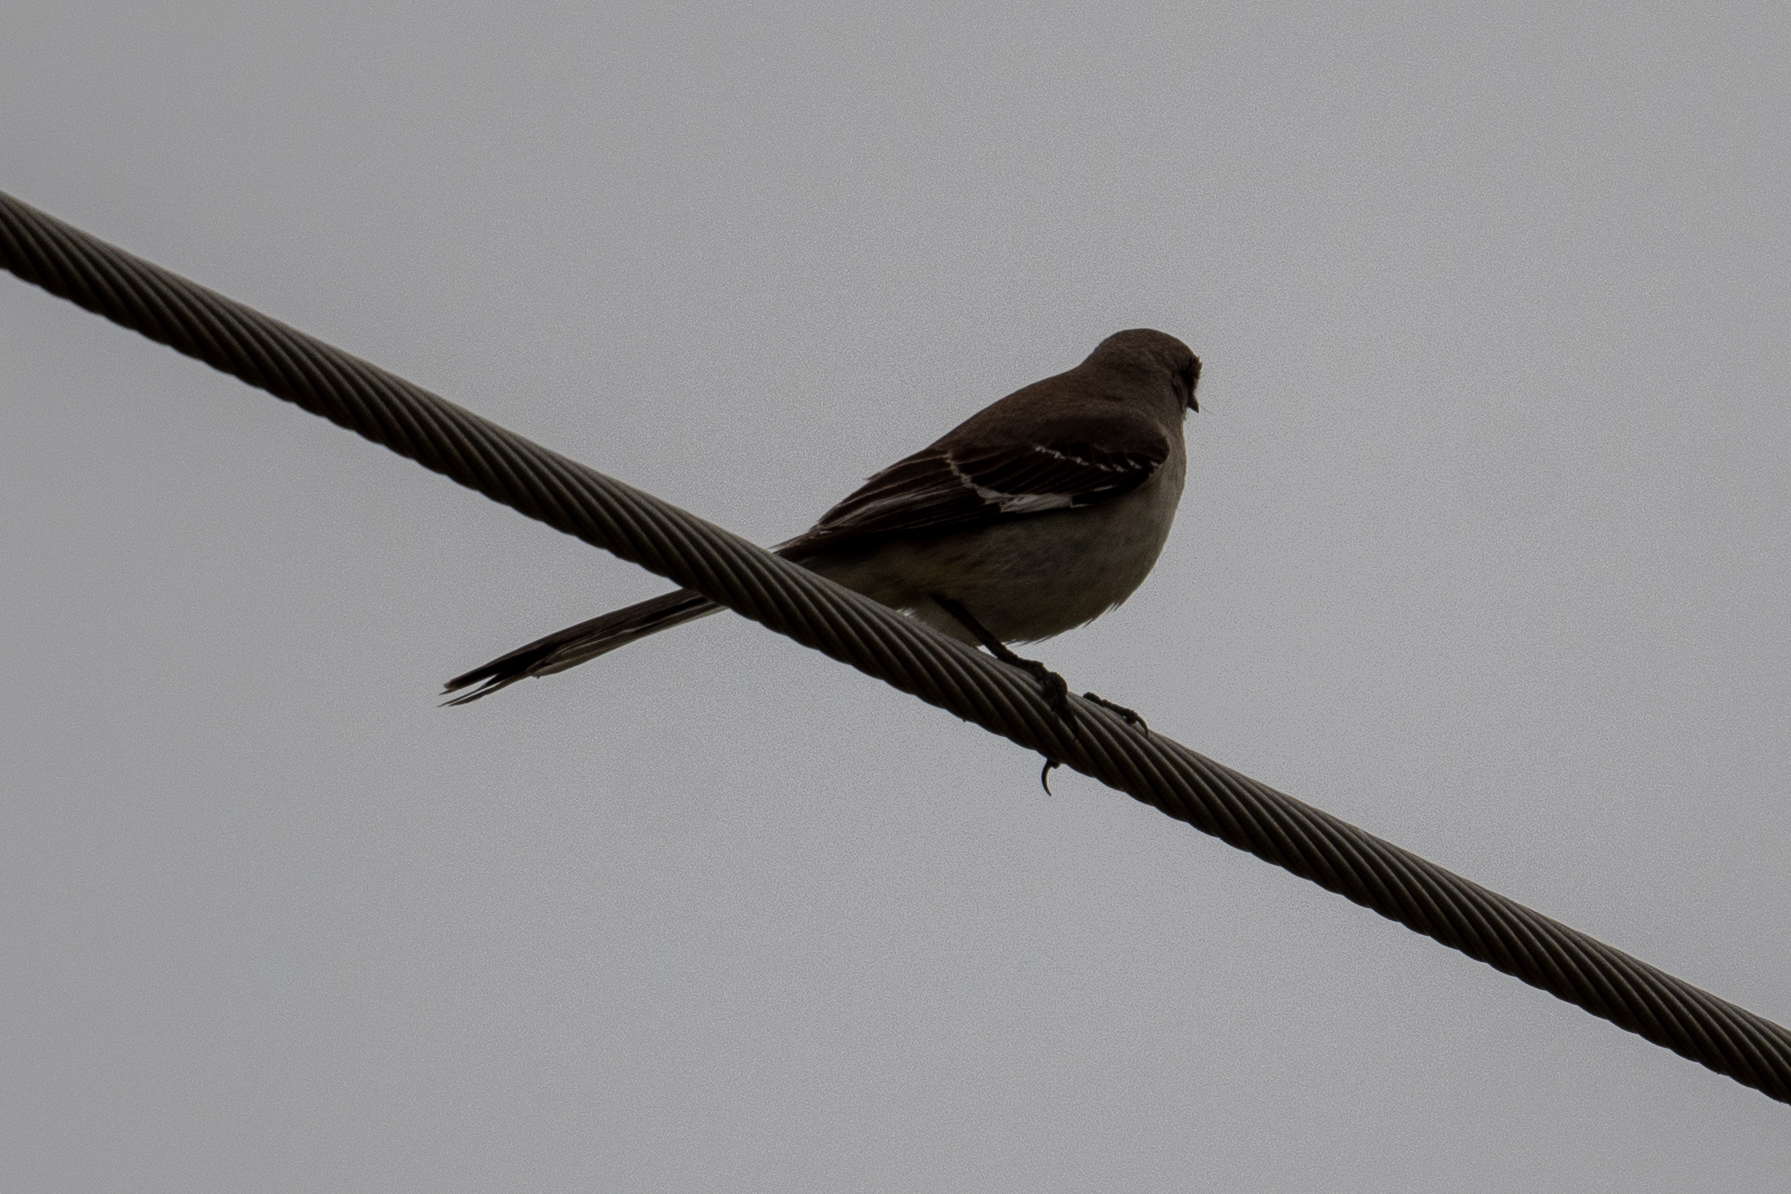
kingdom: Animalia
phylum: Chordata
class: Aves
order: Passeriformes
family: Mimidae
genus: Mimus
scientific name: Mimus polyglottos
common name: Northern mockingbird
